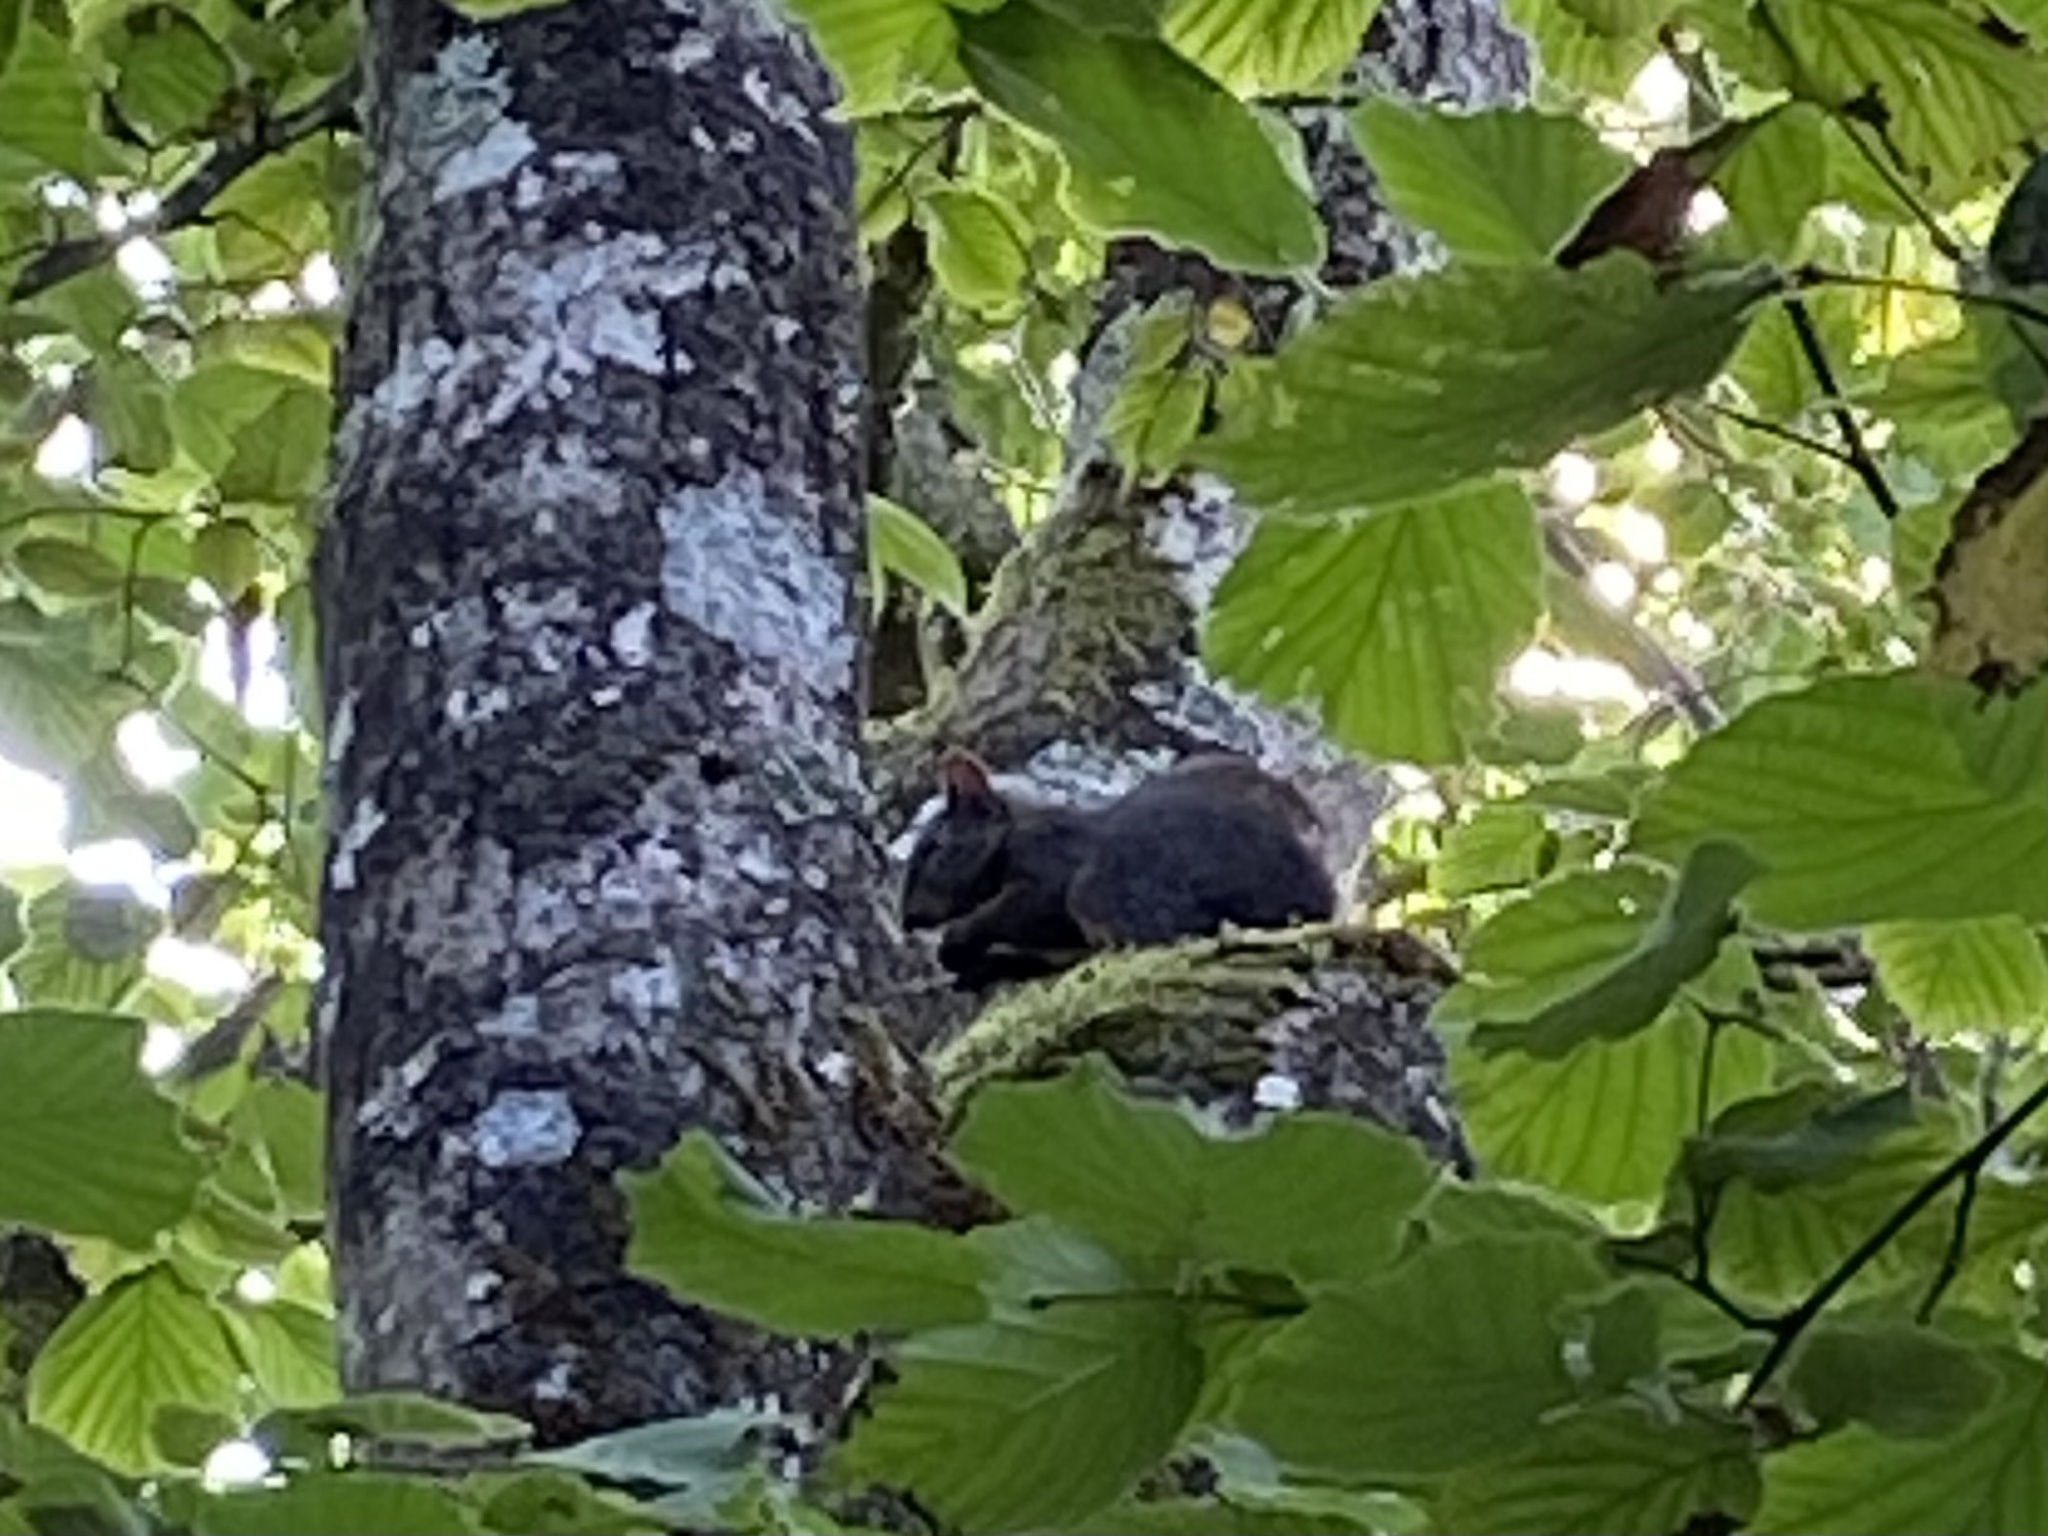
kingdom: Animalia
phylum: Chordata
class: Mammalia
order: Rodentia
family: Sciuridae
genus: Sciurus
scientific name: Sciurus vulgaris
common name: Eurasian red squirrel
